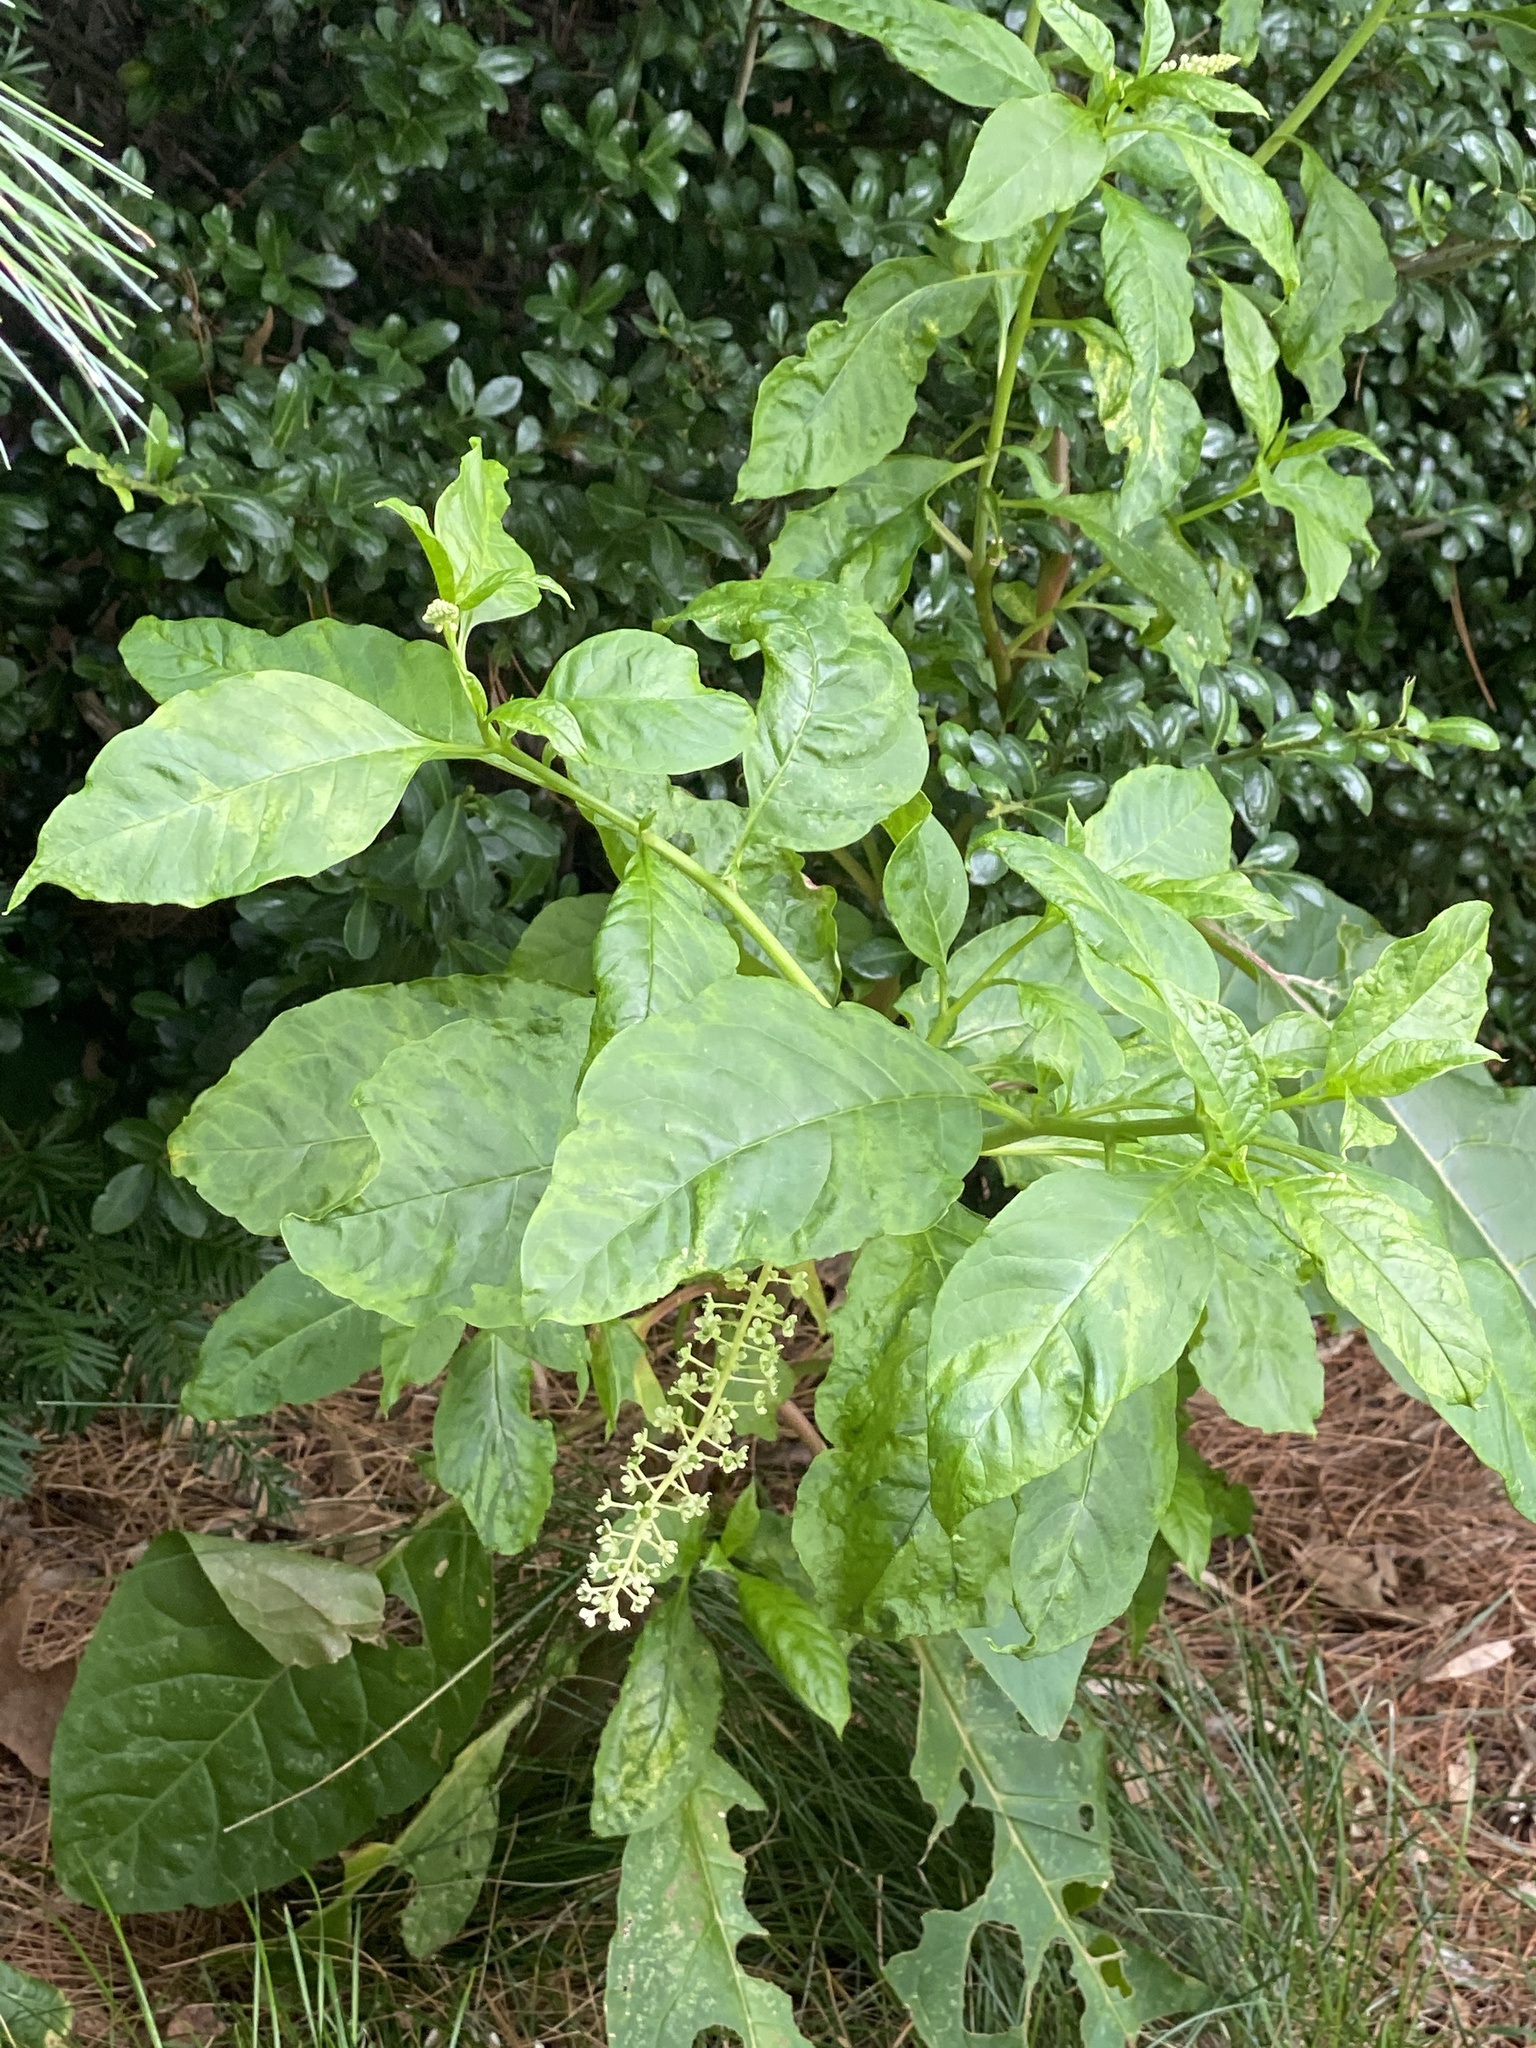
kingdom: Plantae
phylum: Tracheophyta
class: Magnoliopsida
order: Caryophyllales
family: Phytolaccaceae
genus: Phytolacca
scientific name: Phytolacca americana
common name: American pokeweed
